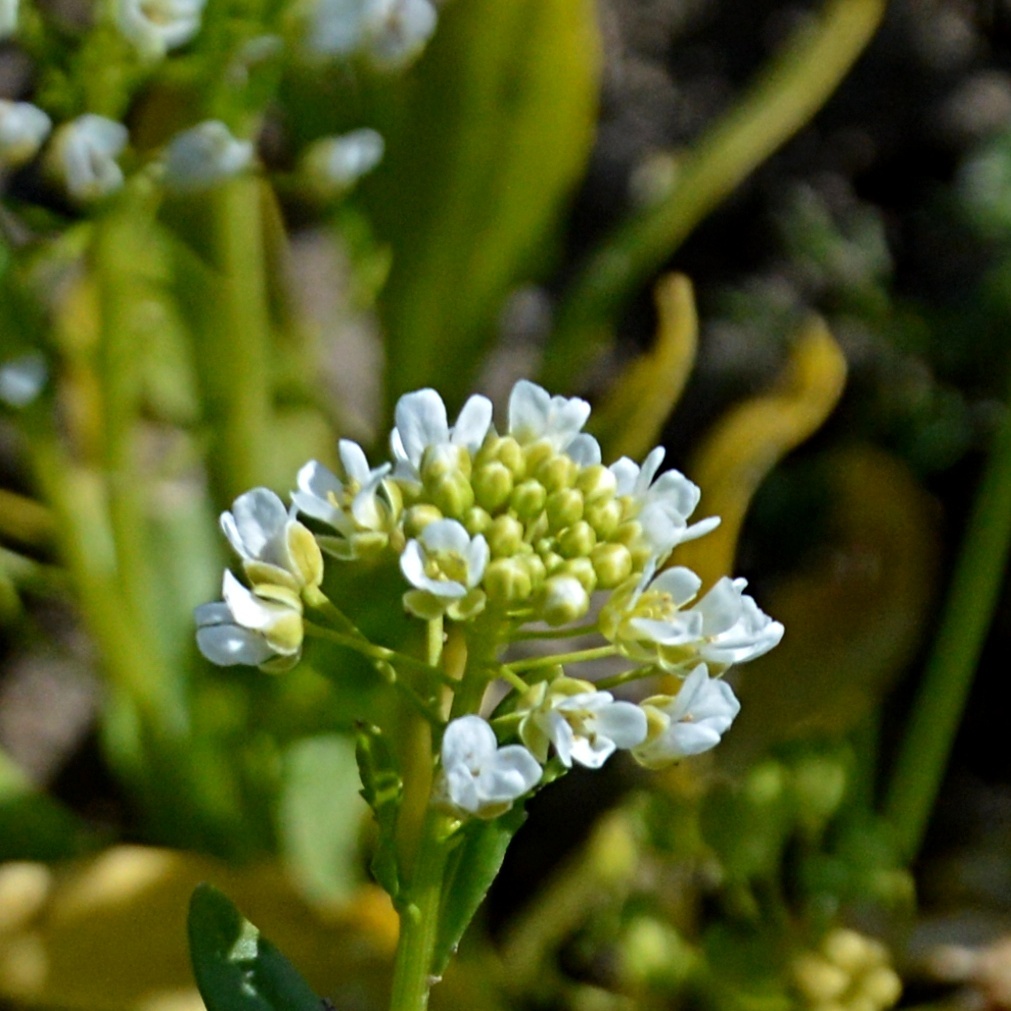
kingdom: Plantae
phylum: Tracheophyta
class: Magnoliopsida
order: Brassicales
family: Brassicaceae
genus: Thlaspi
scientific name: Thlaspi arvense
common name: Field pennycress
